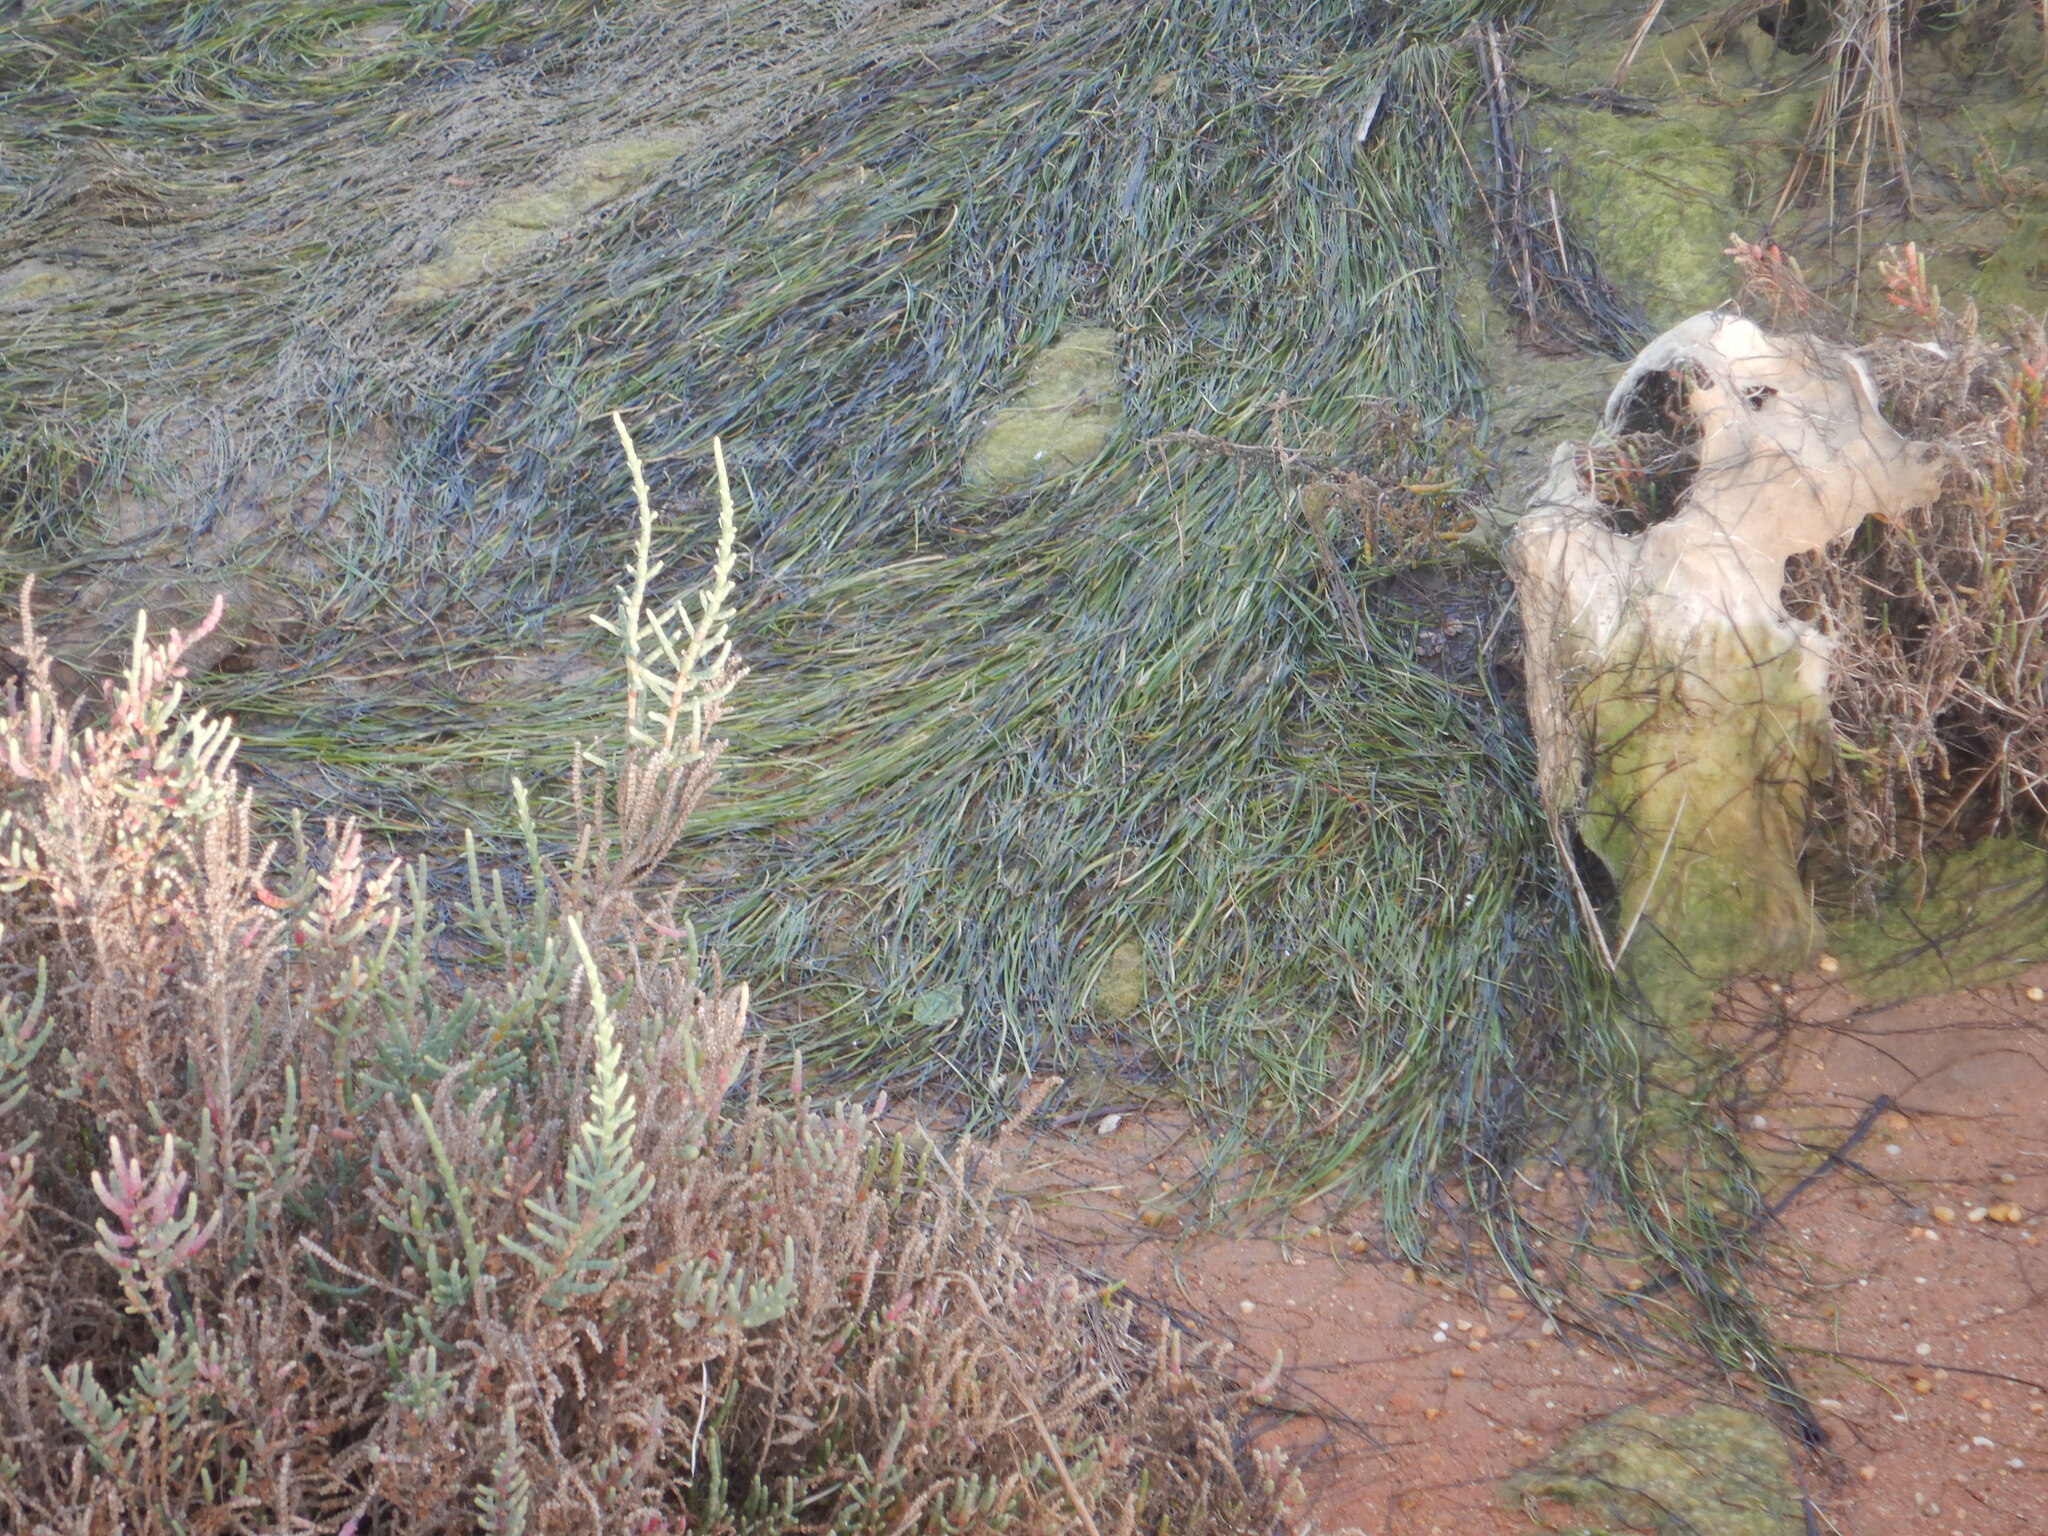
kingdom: Plantae
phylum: Tracheophyta
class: Liliopsida
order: Alismatales
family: Zosteraceae
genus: Zostera
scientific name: Zostera noltii
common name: Dwarf eelgrass
